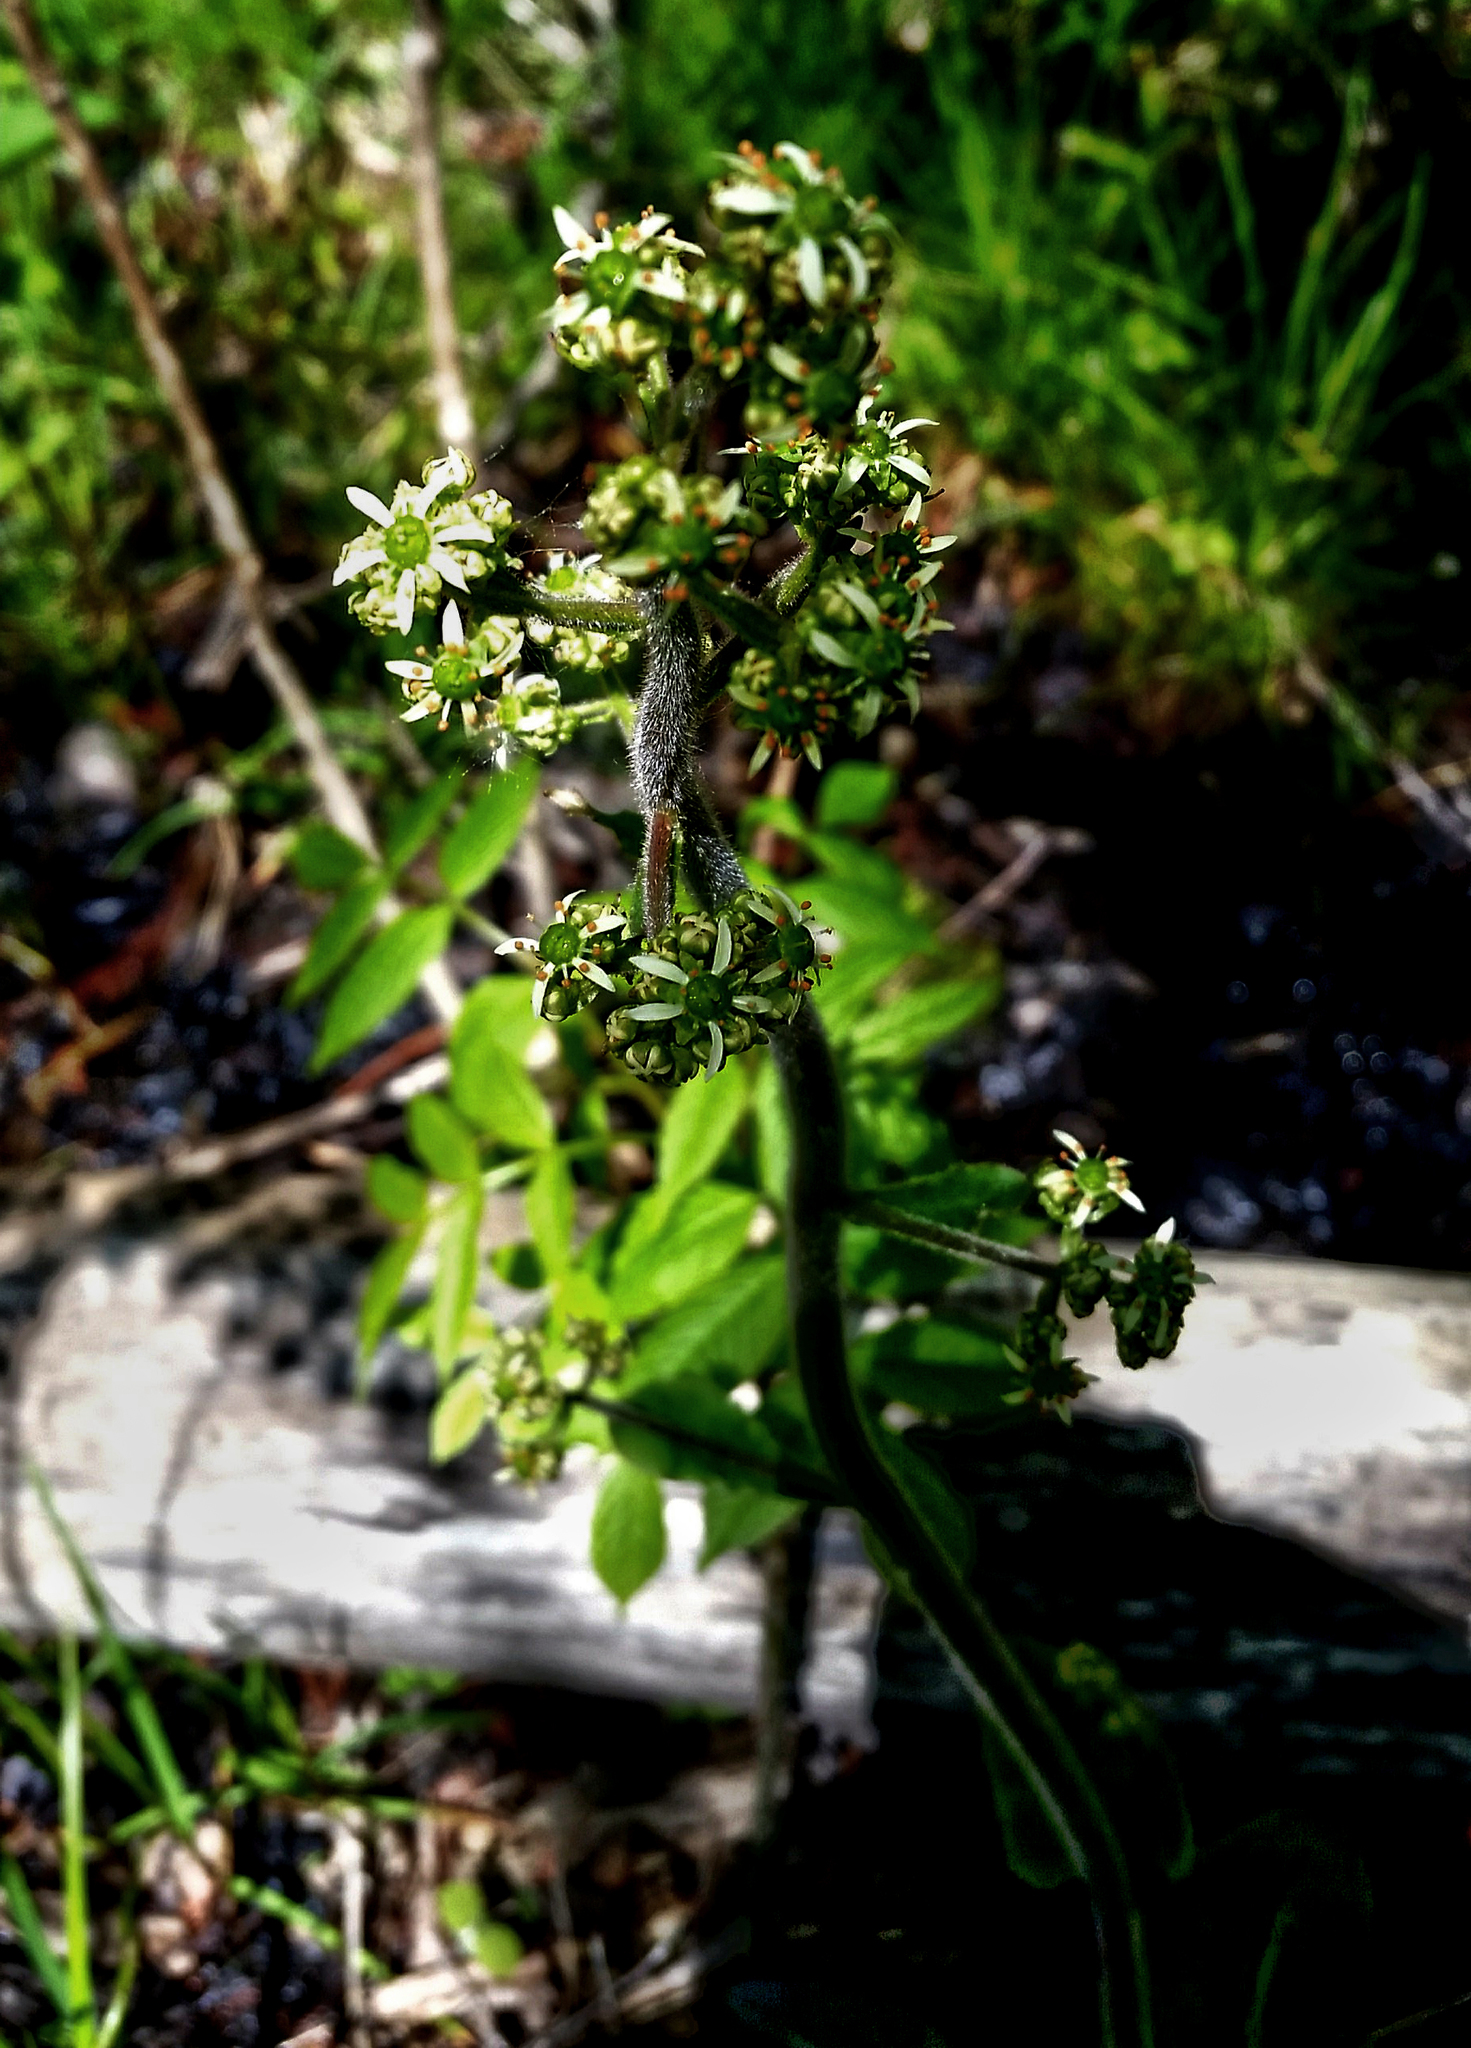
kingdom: Plantae
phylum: Tracheophyta
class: Magnoliopsida
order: Saxifragales
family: Saxifragaceae
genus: Micranthes
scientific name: Micranthes pensylvanica
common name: Marsh saxifrage
